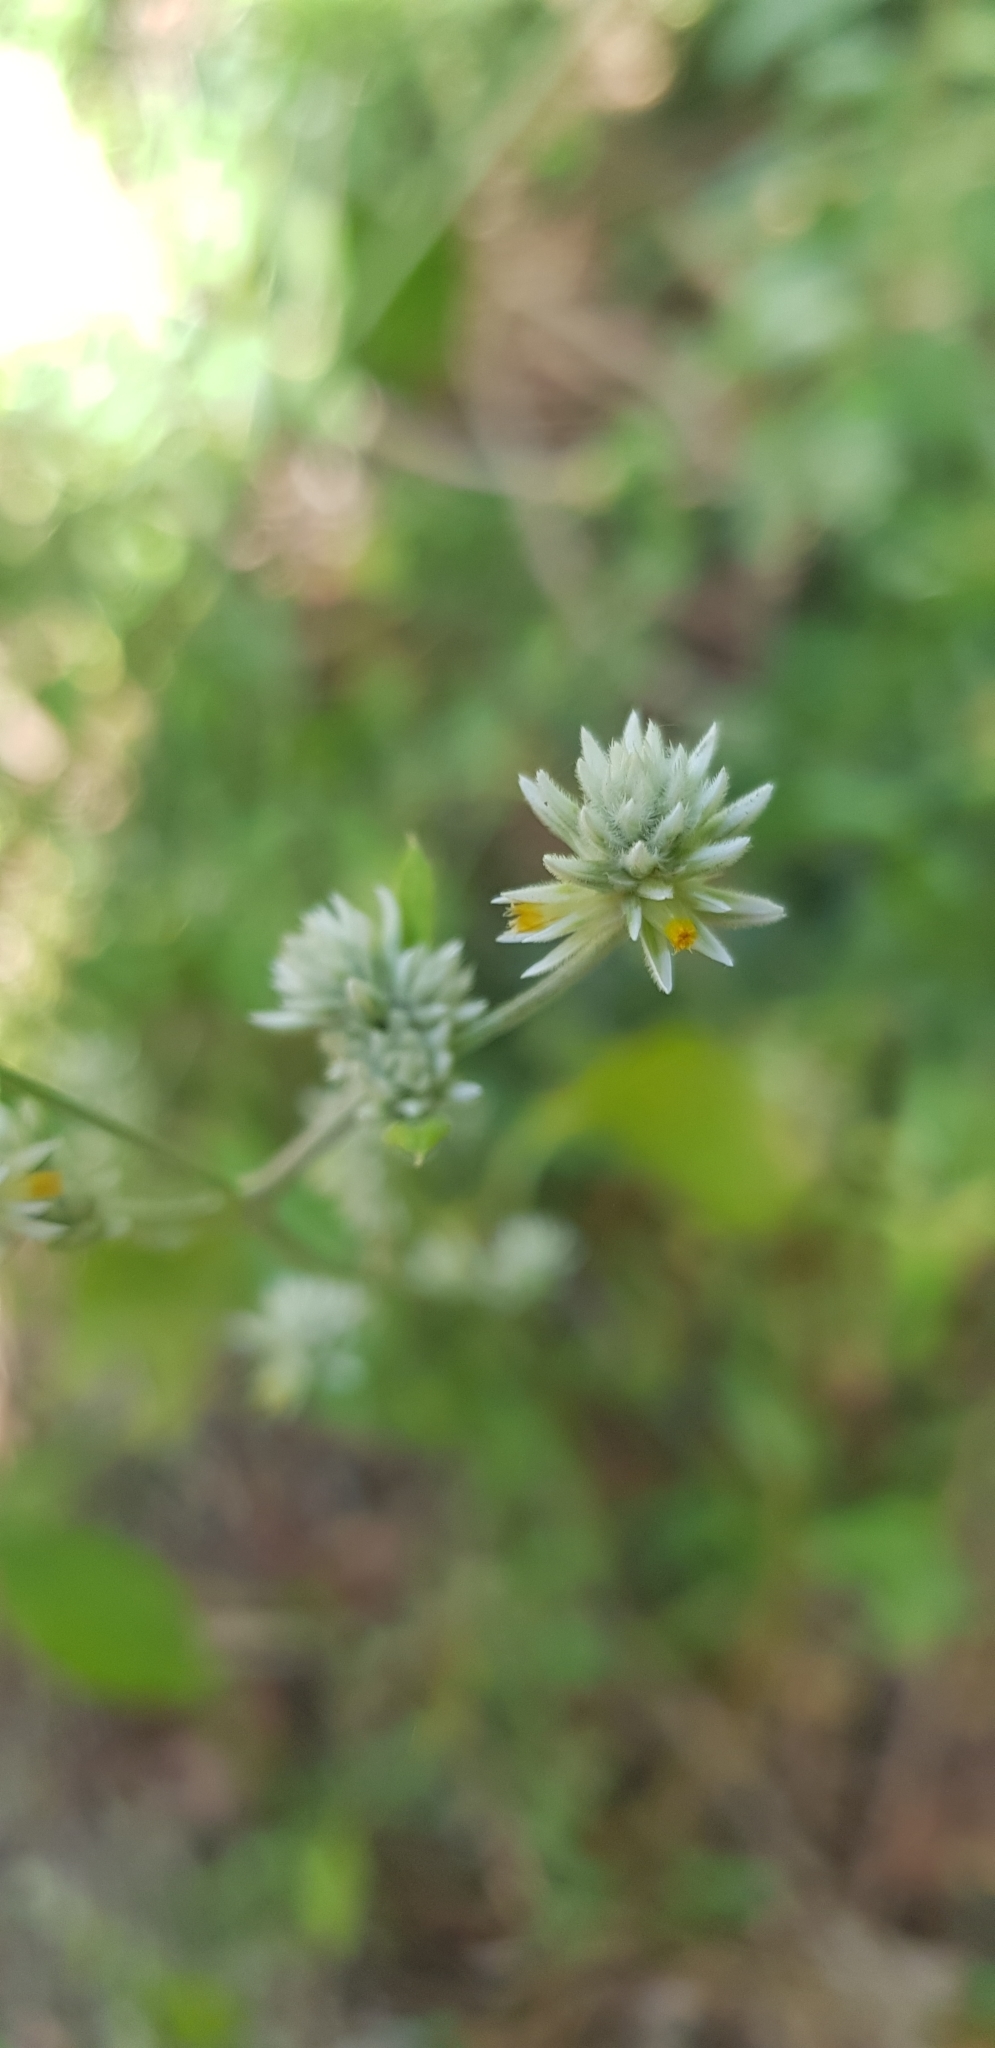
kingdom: Plantae
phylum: Tracheophyta
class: Magnoliopsida
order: Caryophyllales
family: Amaranthaceae
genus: Gomphrena
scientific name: Gomphrena serrata
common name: Arrasa con todo
